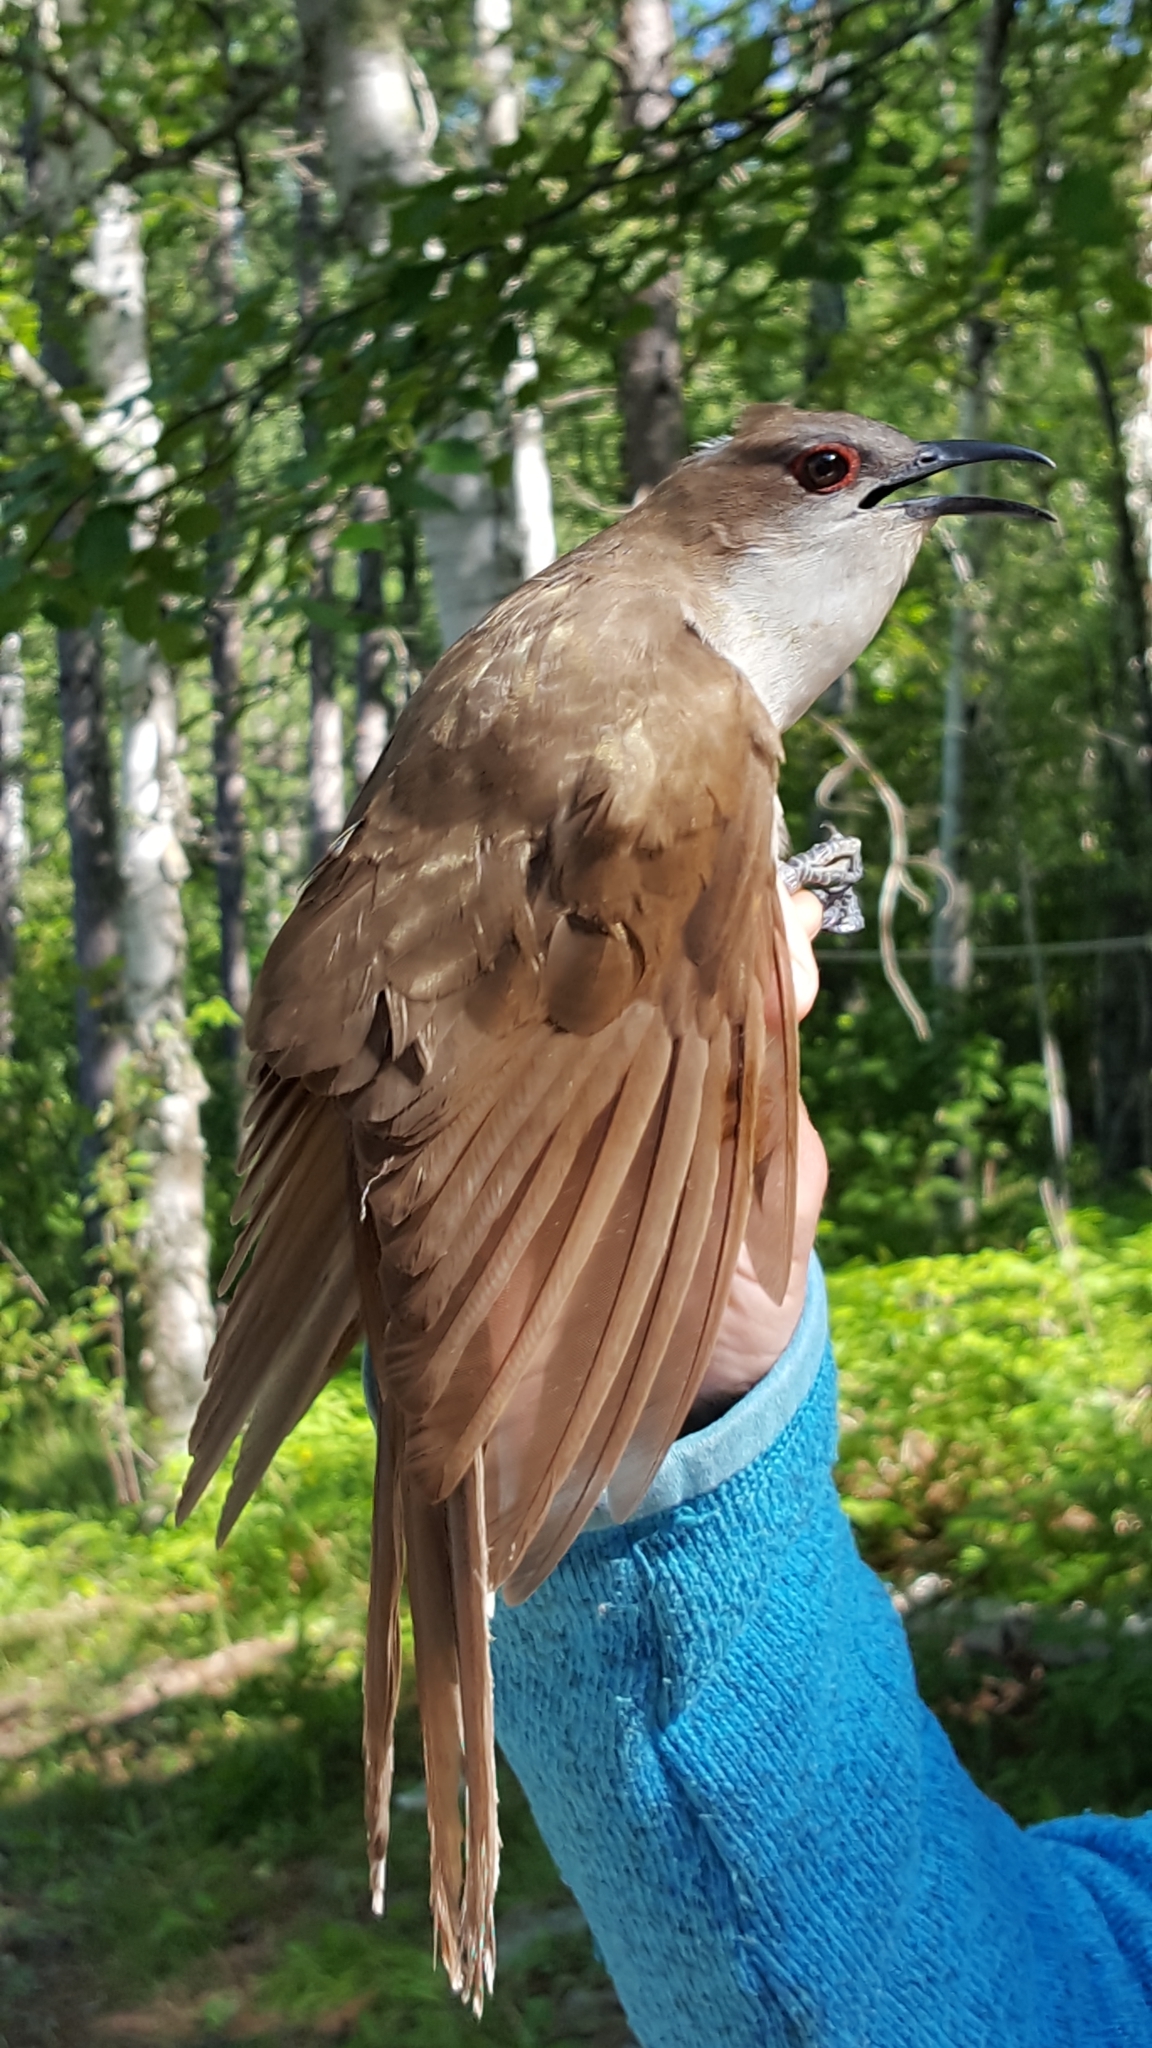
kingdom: Animalia
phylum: Chordata
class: Aves
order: Cuculiformes
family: Cuculidae
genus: Coccyzus
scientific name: Coccyzus erythropthalmus
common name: Black-billed cuckoo
